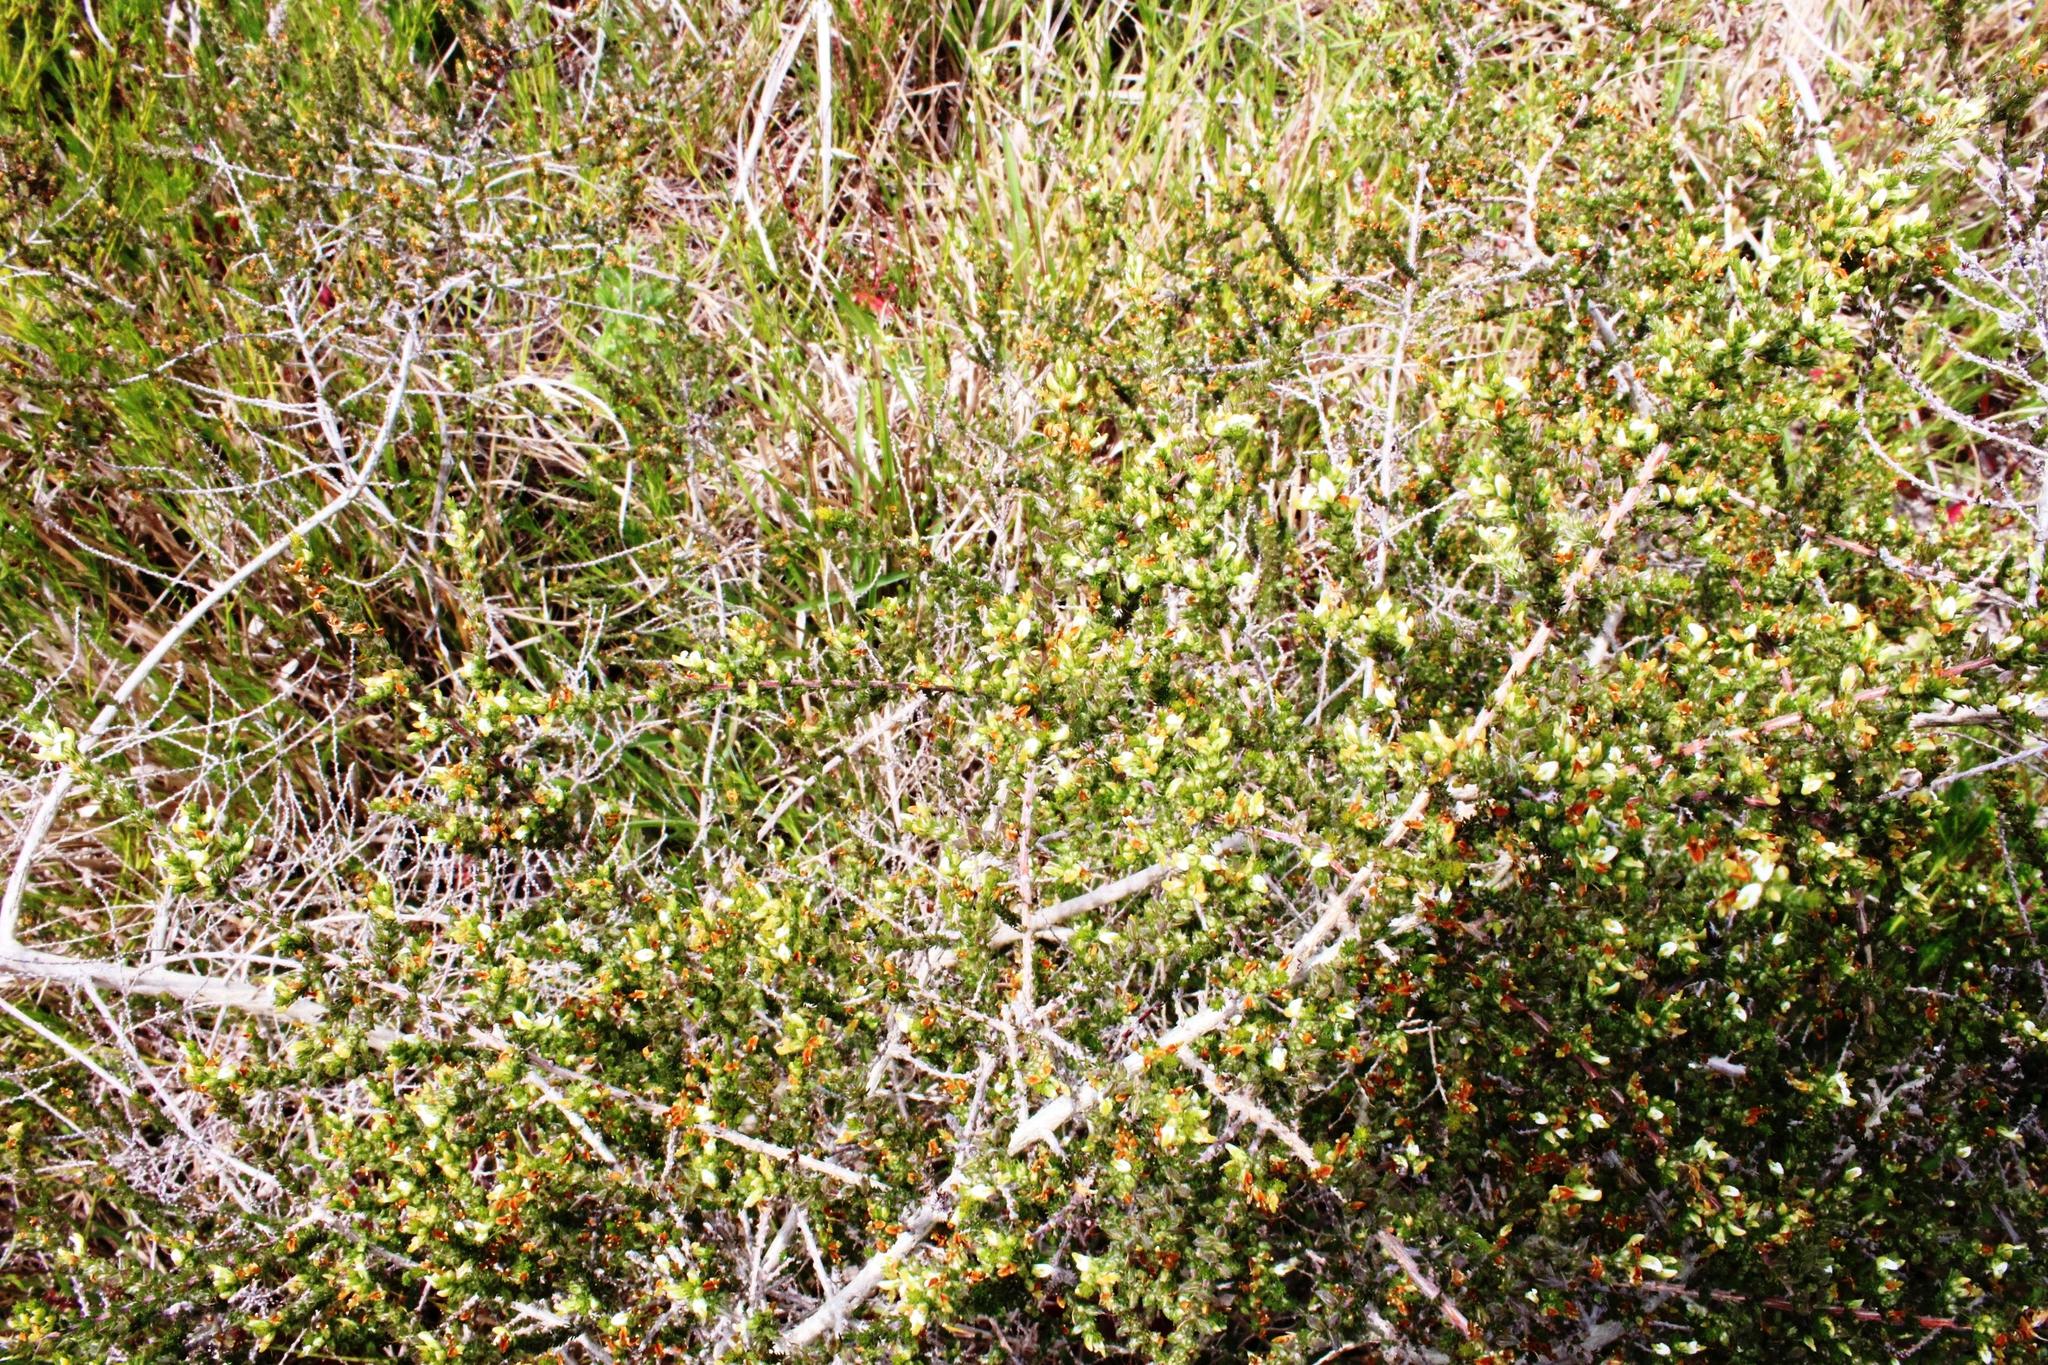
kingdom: Plantae
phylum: Tracheophyta
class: Magnoliopsida
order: Fabales
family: Fabaceae
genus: Aspalathus
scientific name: Aspalathus hispida
